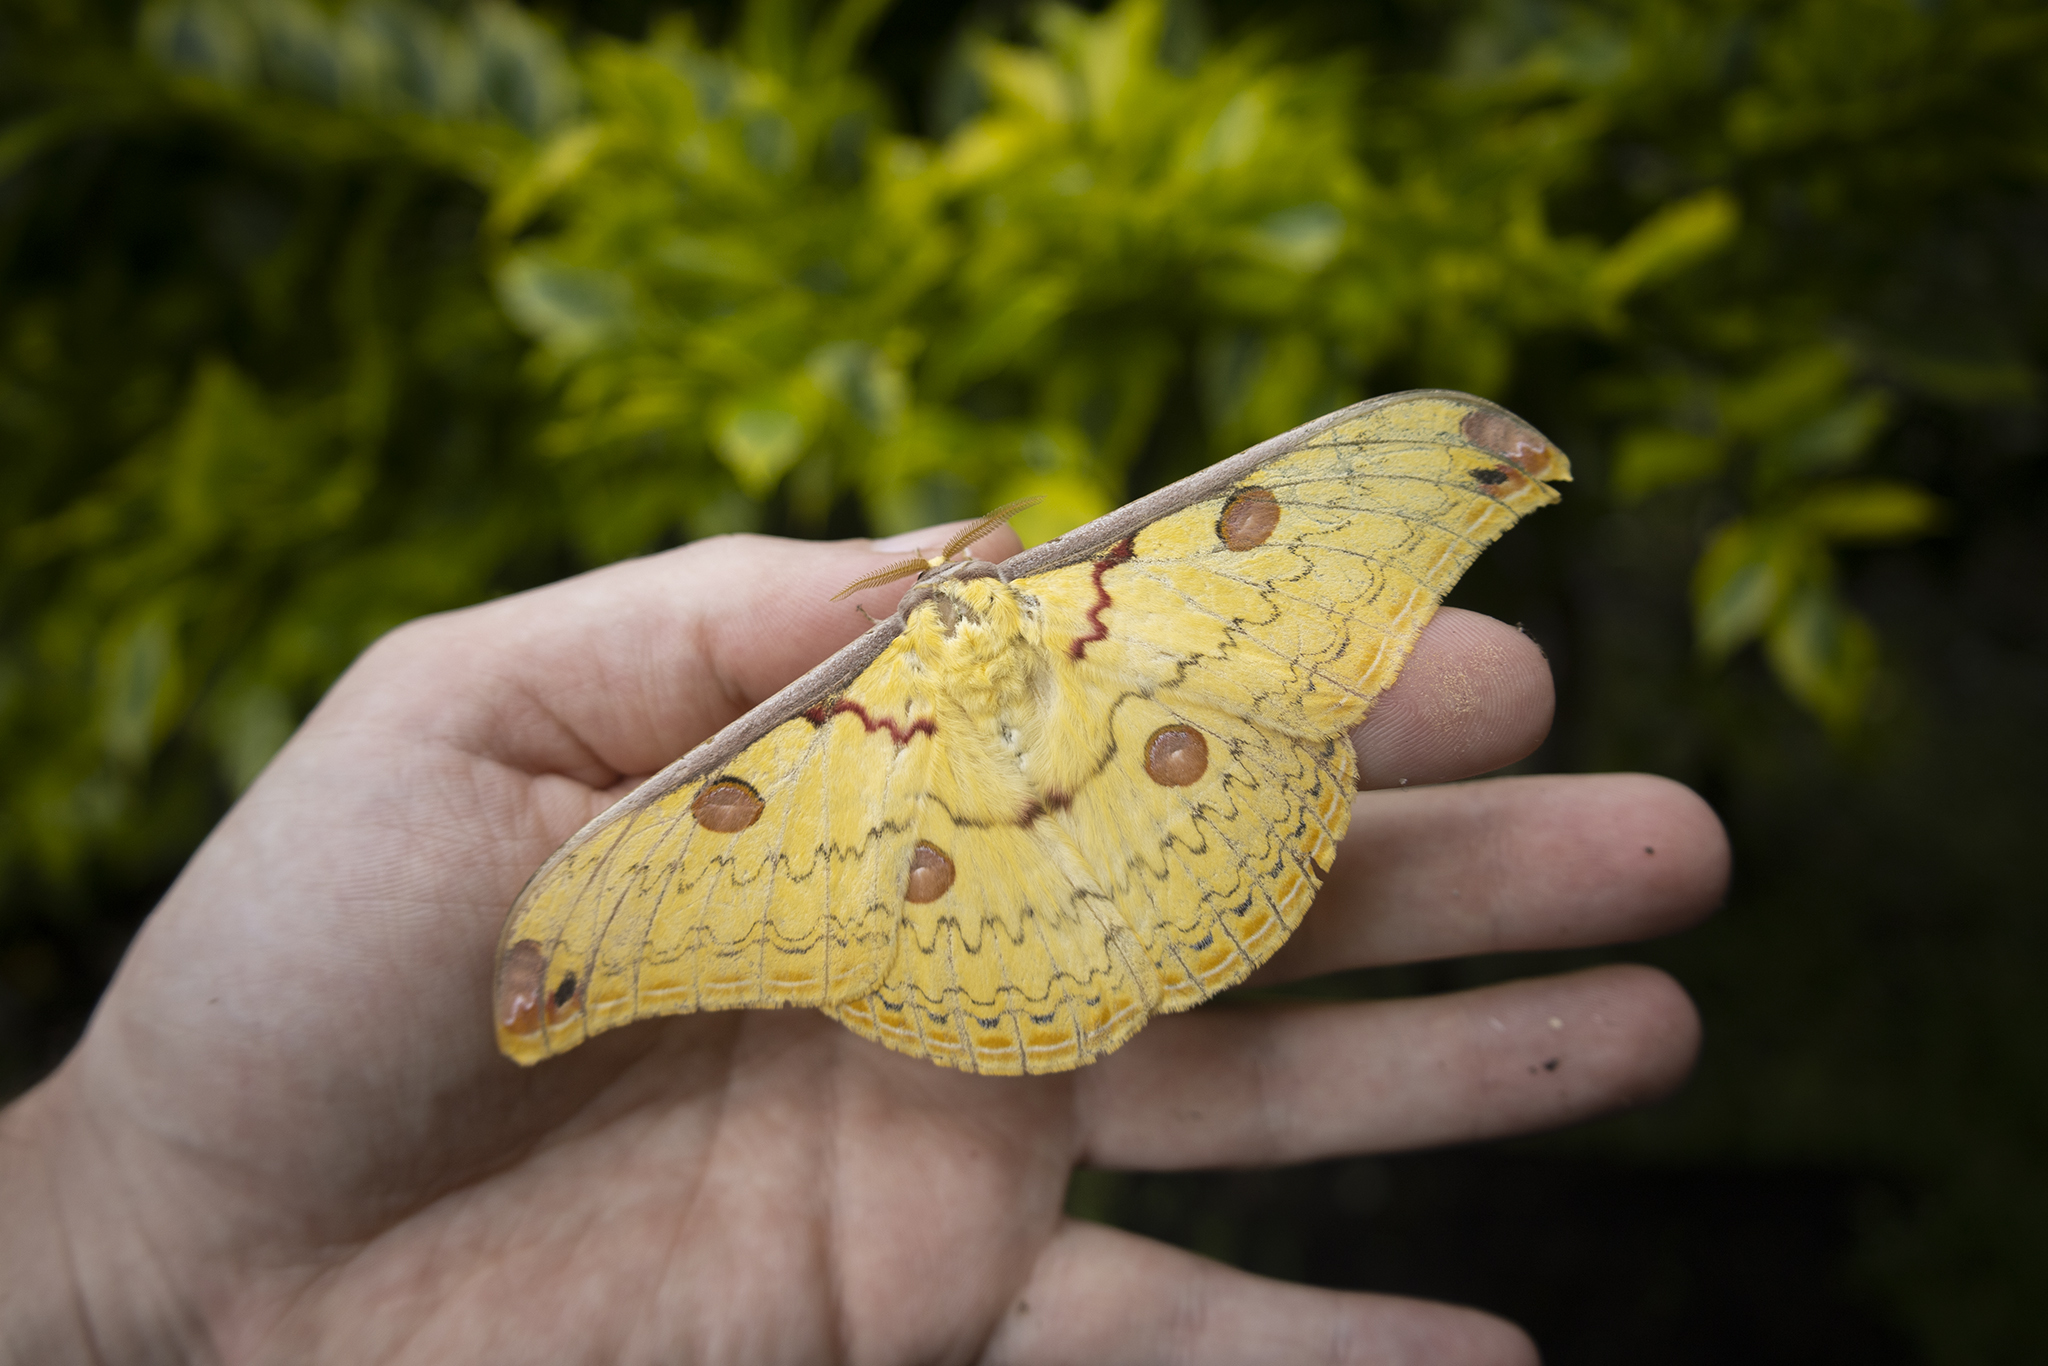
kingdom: Animalia
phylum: Arthropoda
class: Insecta
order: Lepidoptera
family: Saturniidae
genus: Loepa
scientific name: Loepa katinka
